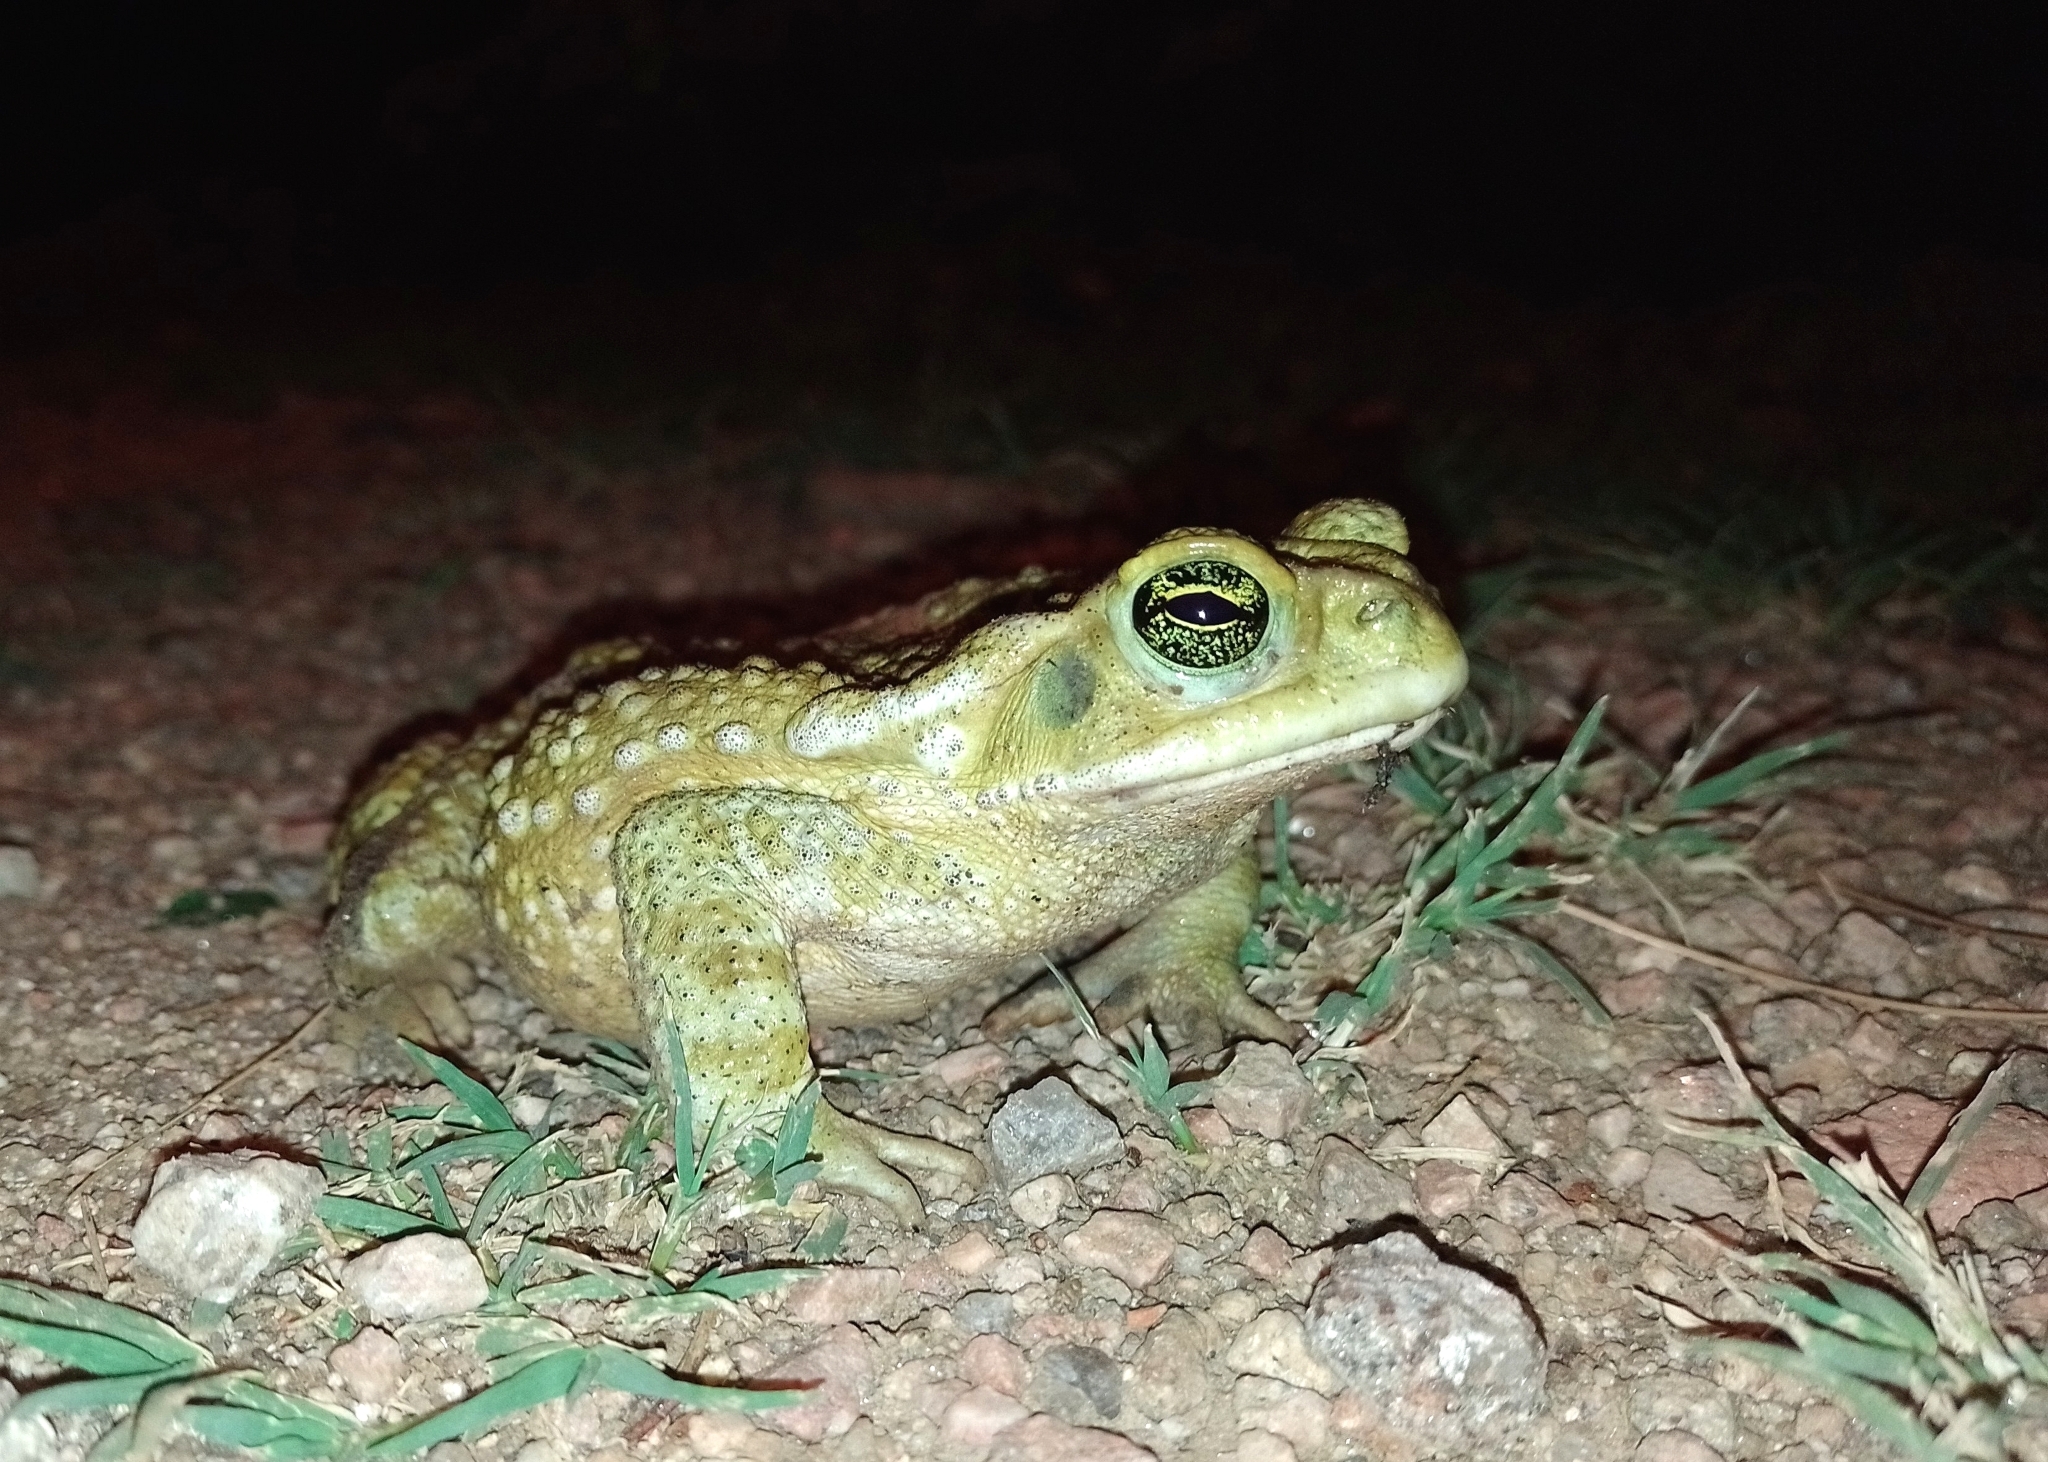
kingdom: Animalia
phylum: Chordata
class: Amphibia
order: Anura
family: Bufonidae
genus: Rhinella
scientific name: Rhinella arenarum
